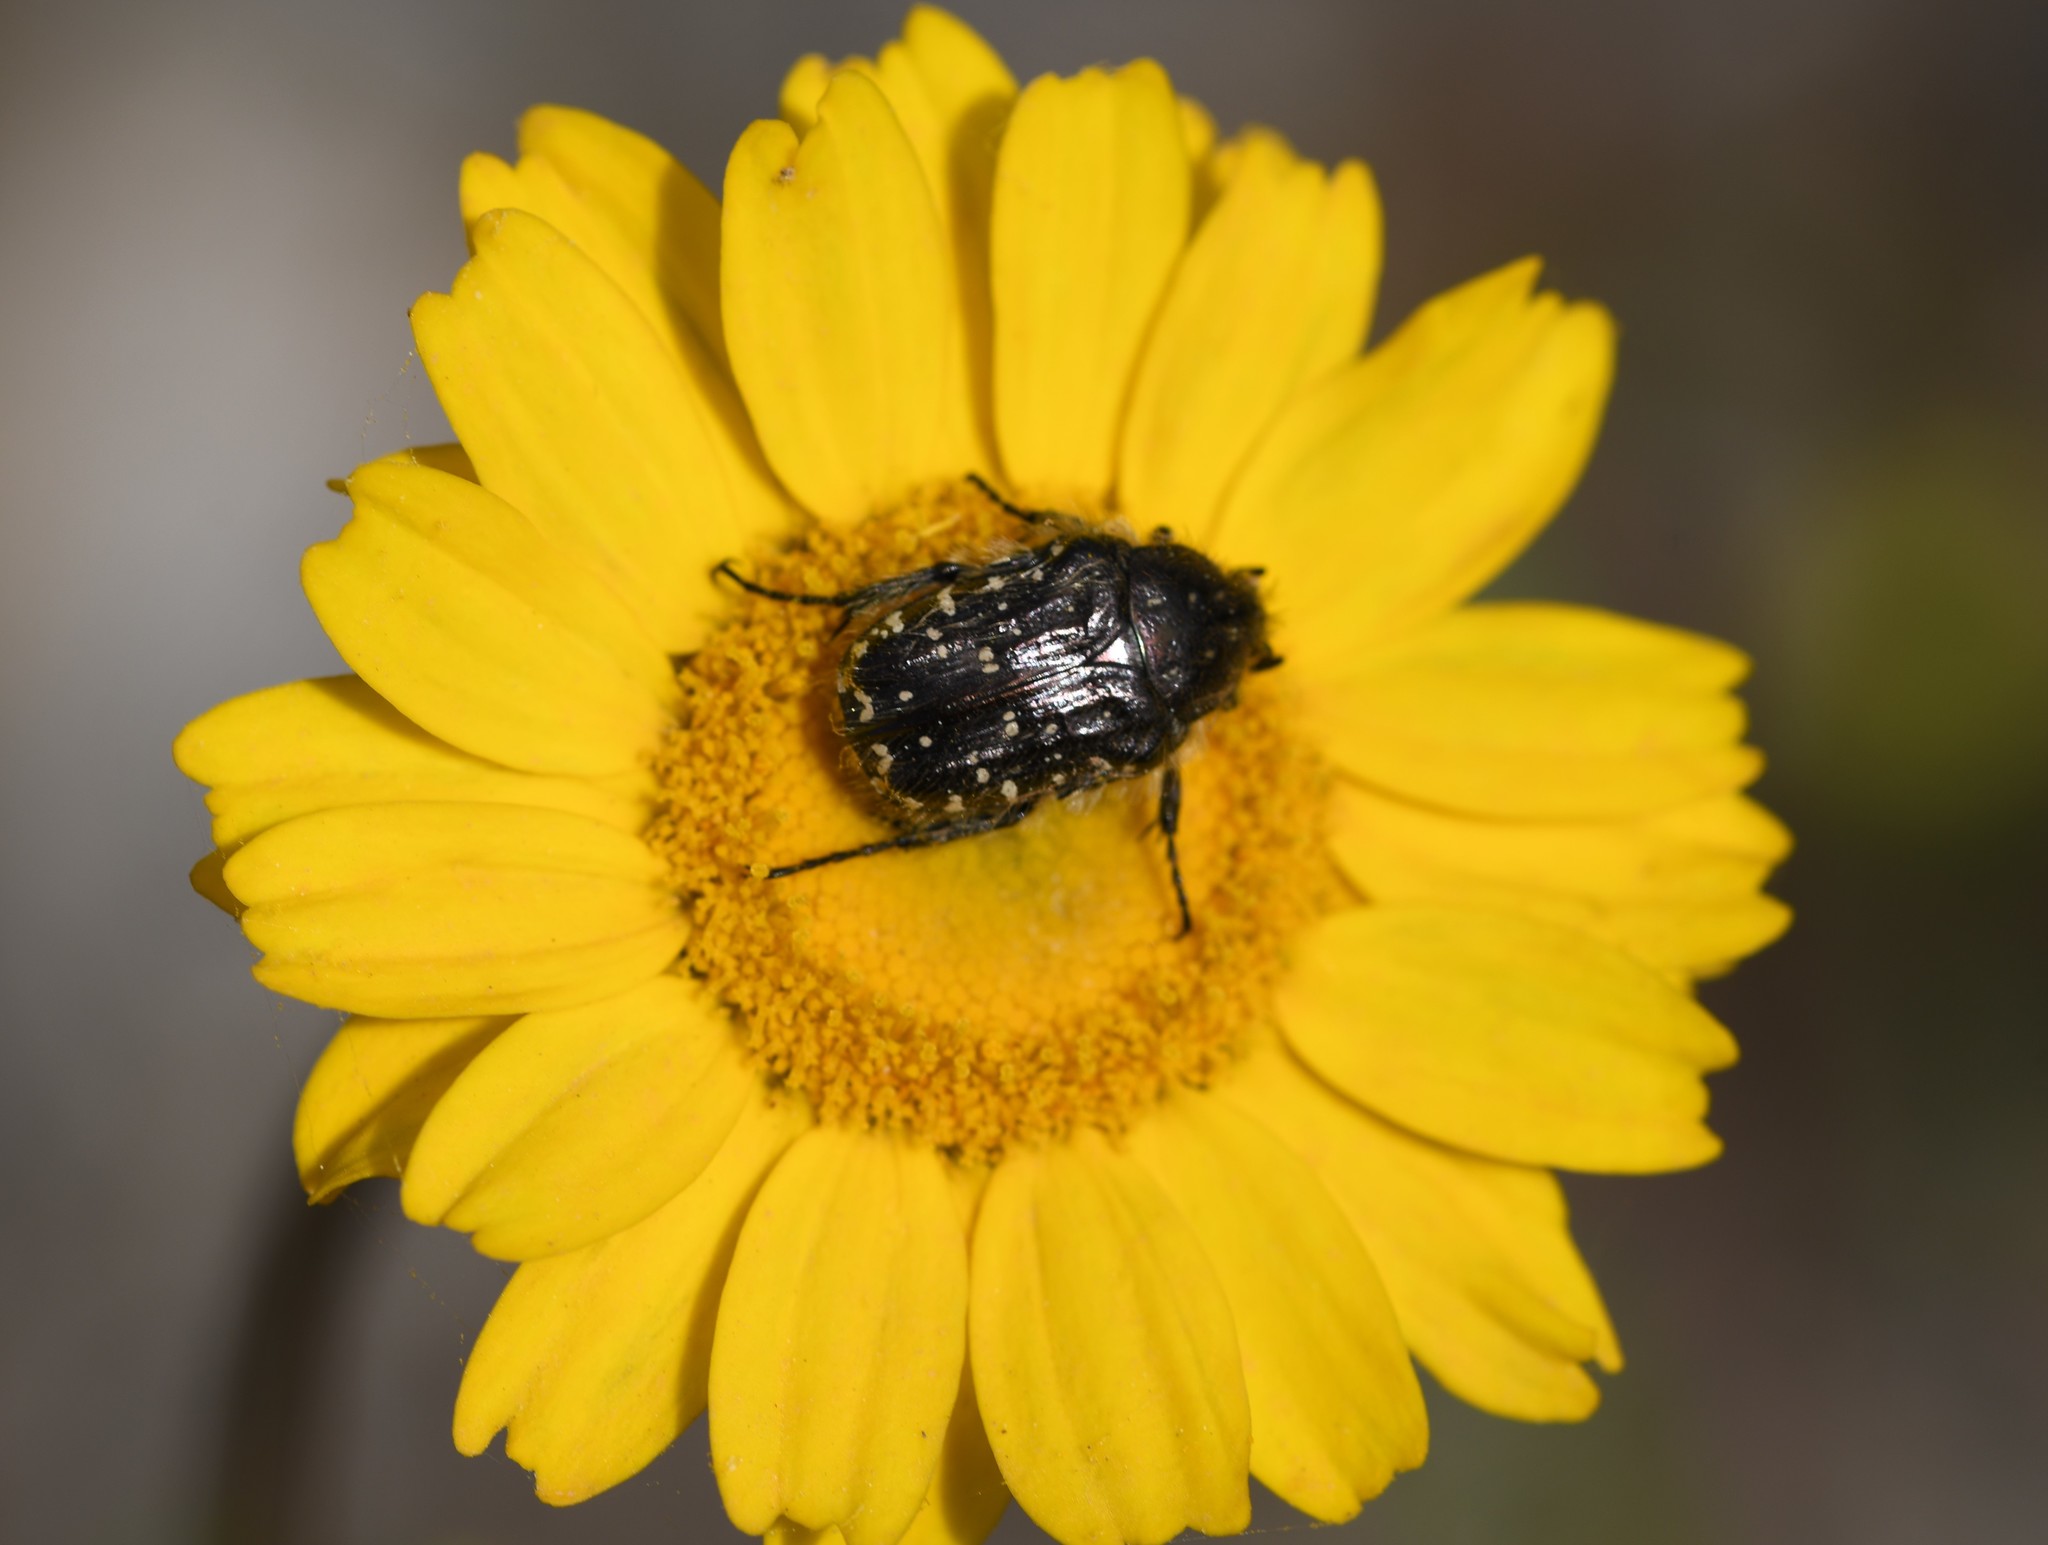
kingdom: Animalia
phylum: Arthropoda
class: Insecta
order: Coleoptera
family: Scarabaeidae
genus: Oxythyrea
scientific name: Oxythyrea funesta
